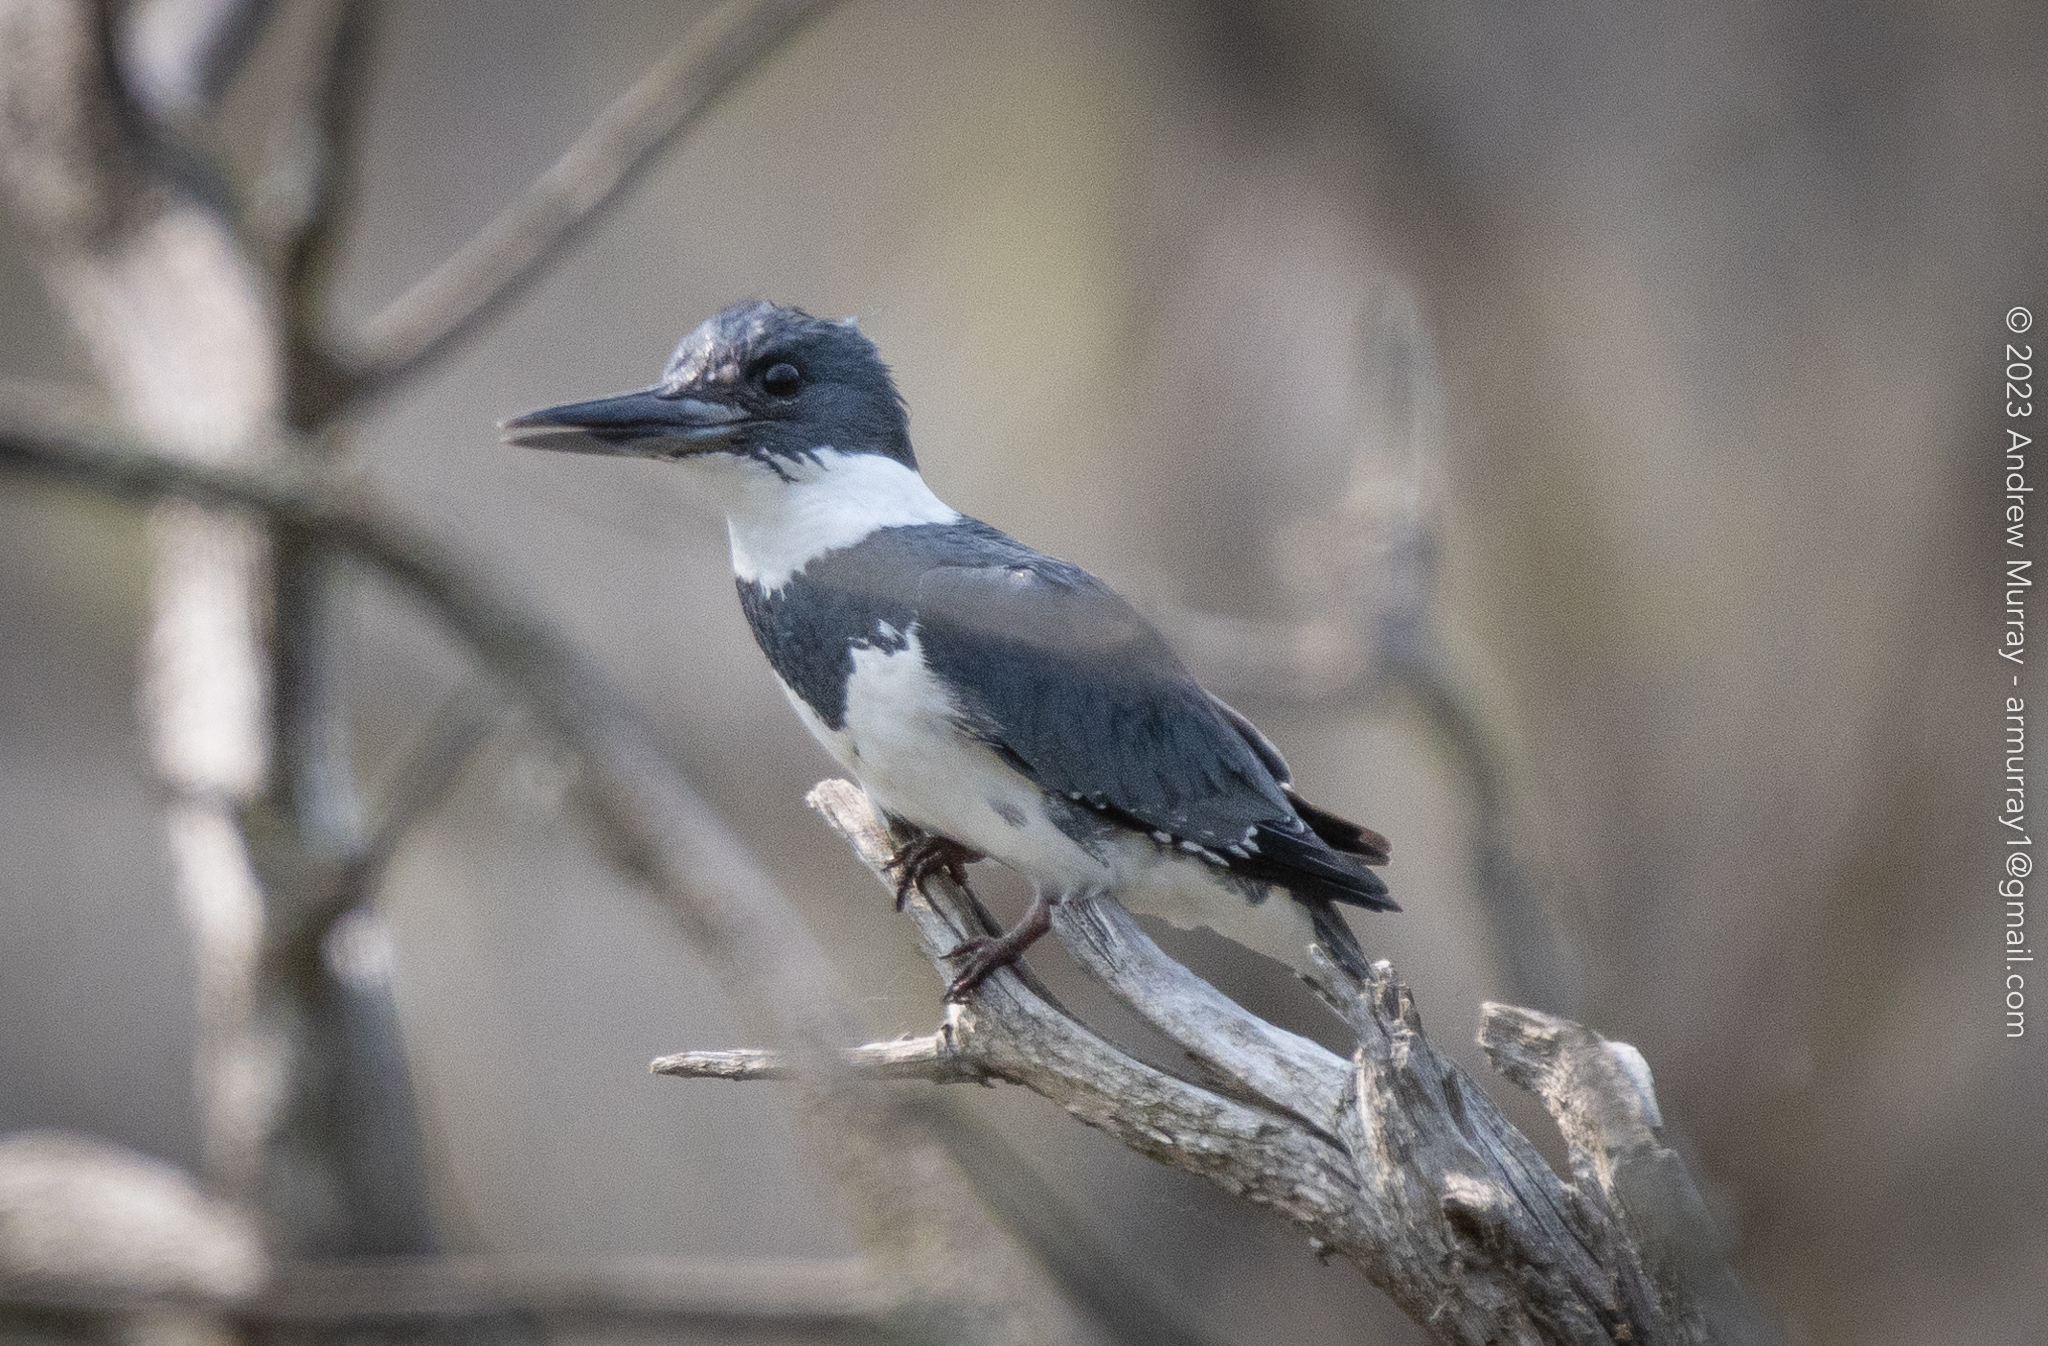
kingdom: Animalia
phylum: Chordata
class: Aves
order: Coraciiformes
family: Alcedinidae
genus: Megaceryle
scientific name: Megaceryle alcyon
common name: Belted kingfisher
